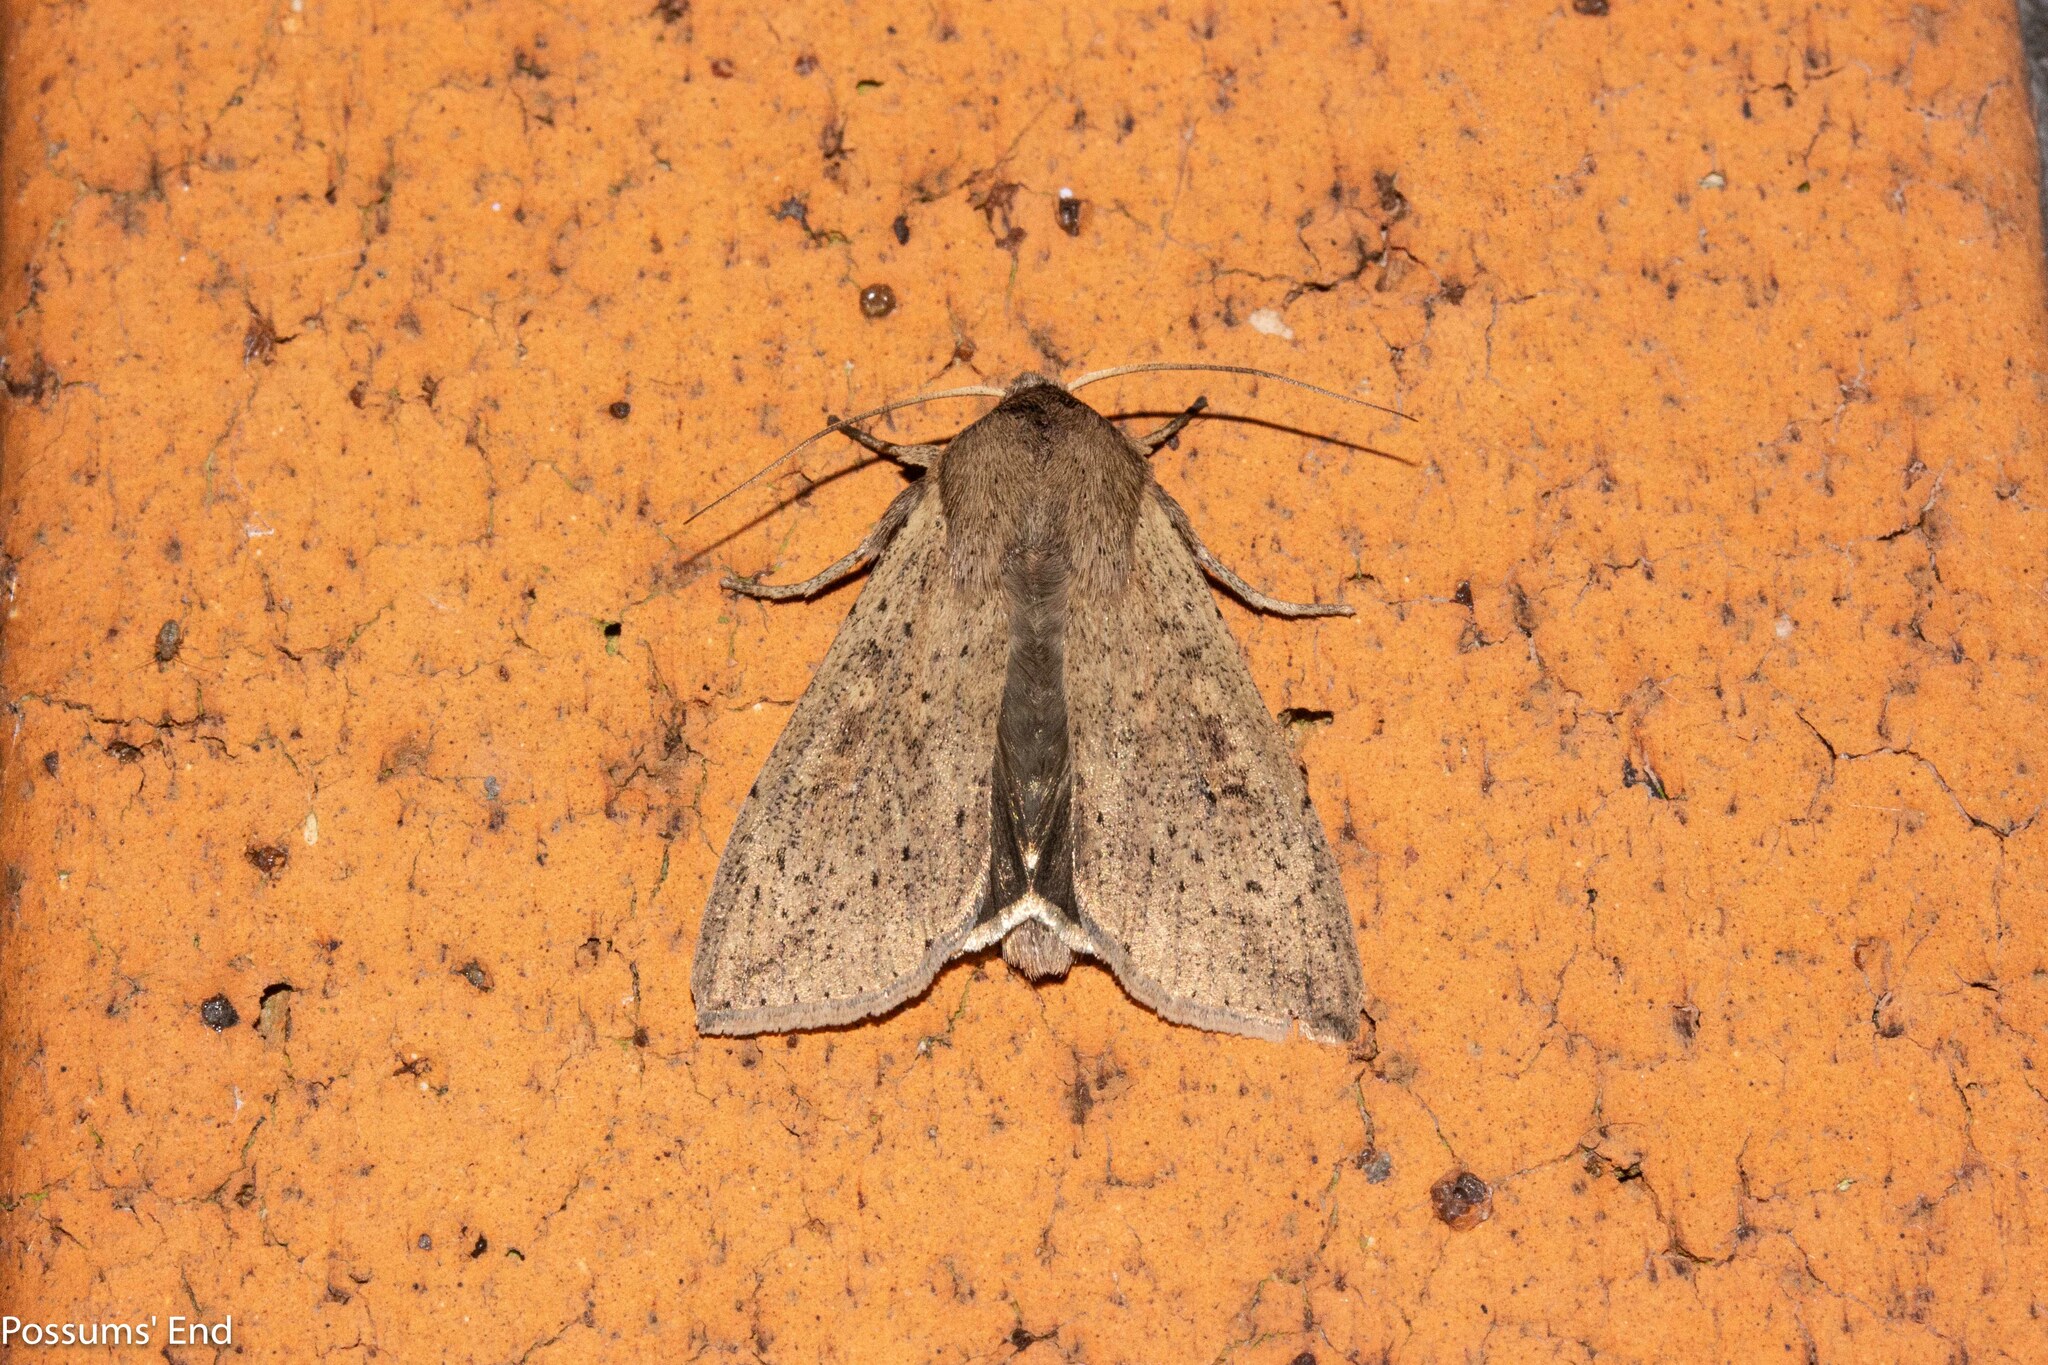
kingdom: Animalia
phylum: Arthropoda
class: Insecta
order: Lepidoptera
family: Noctuidae
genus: Mythimna
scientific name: Mythimna separata
